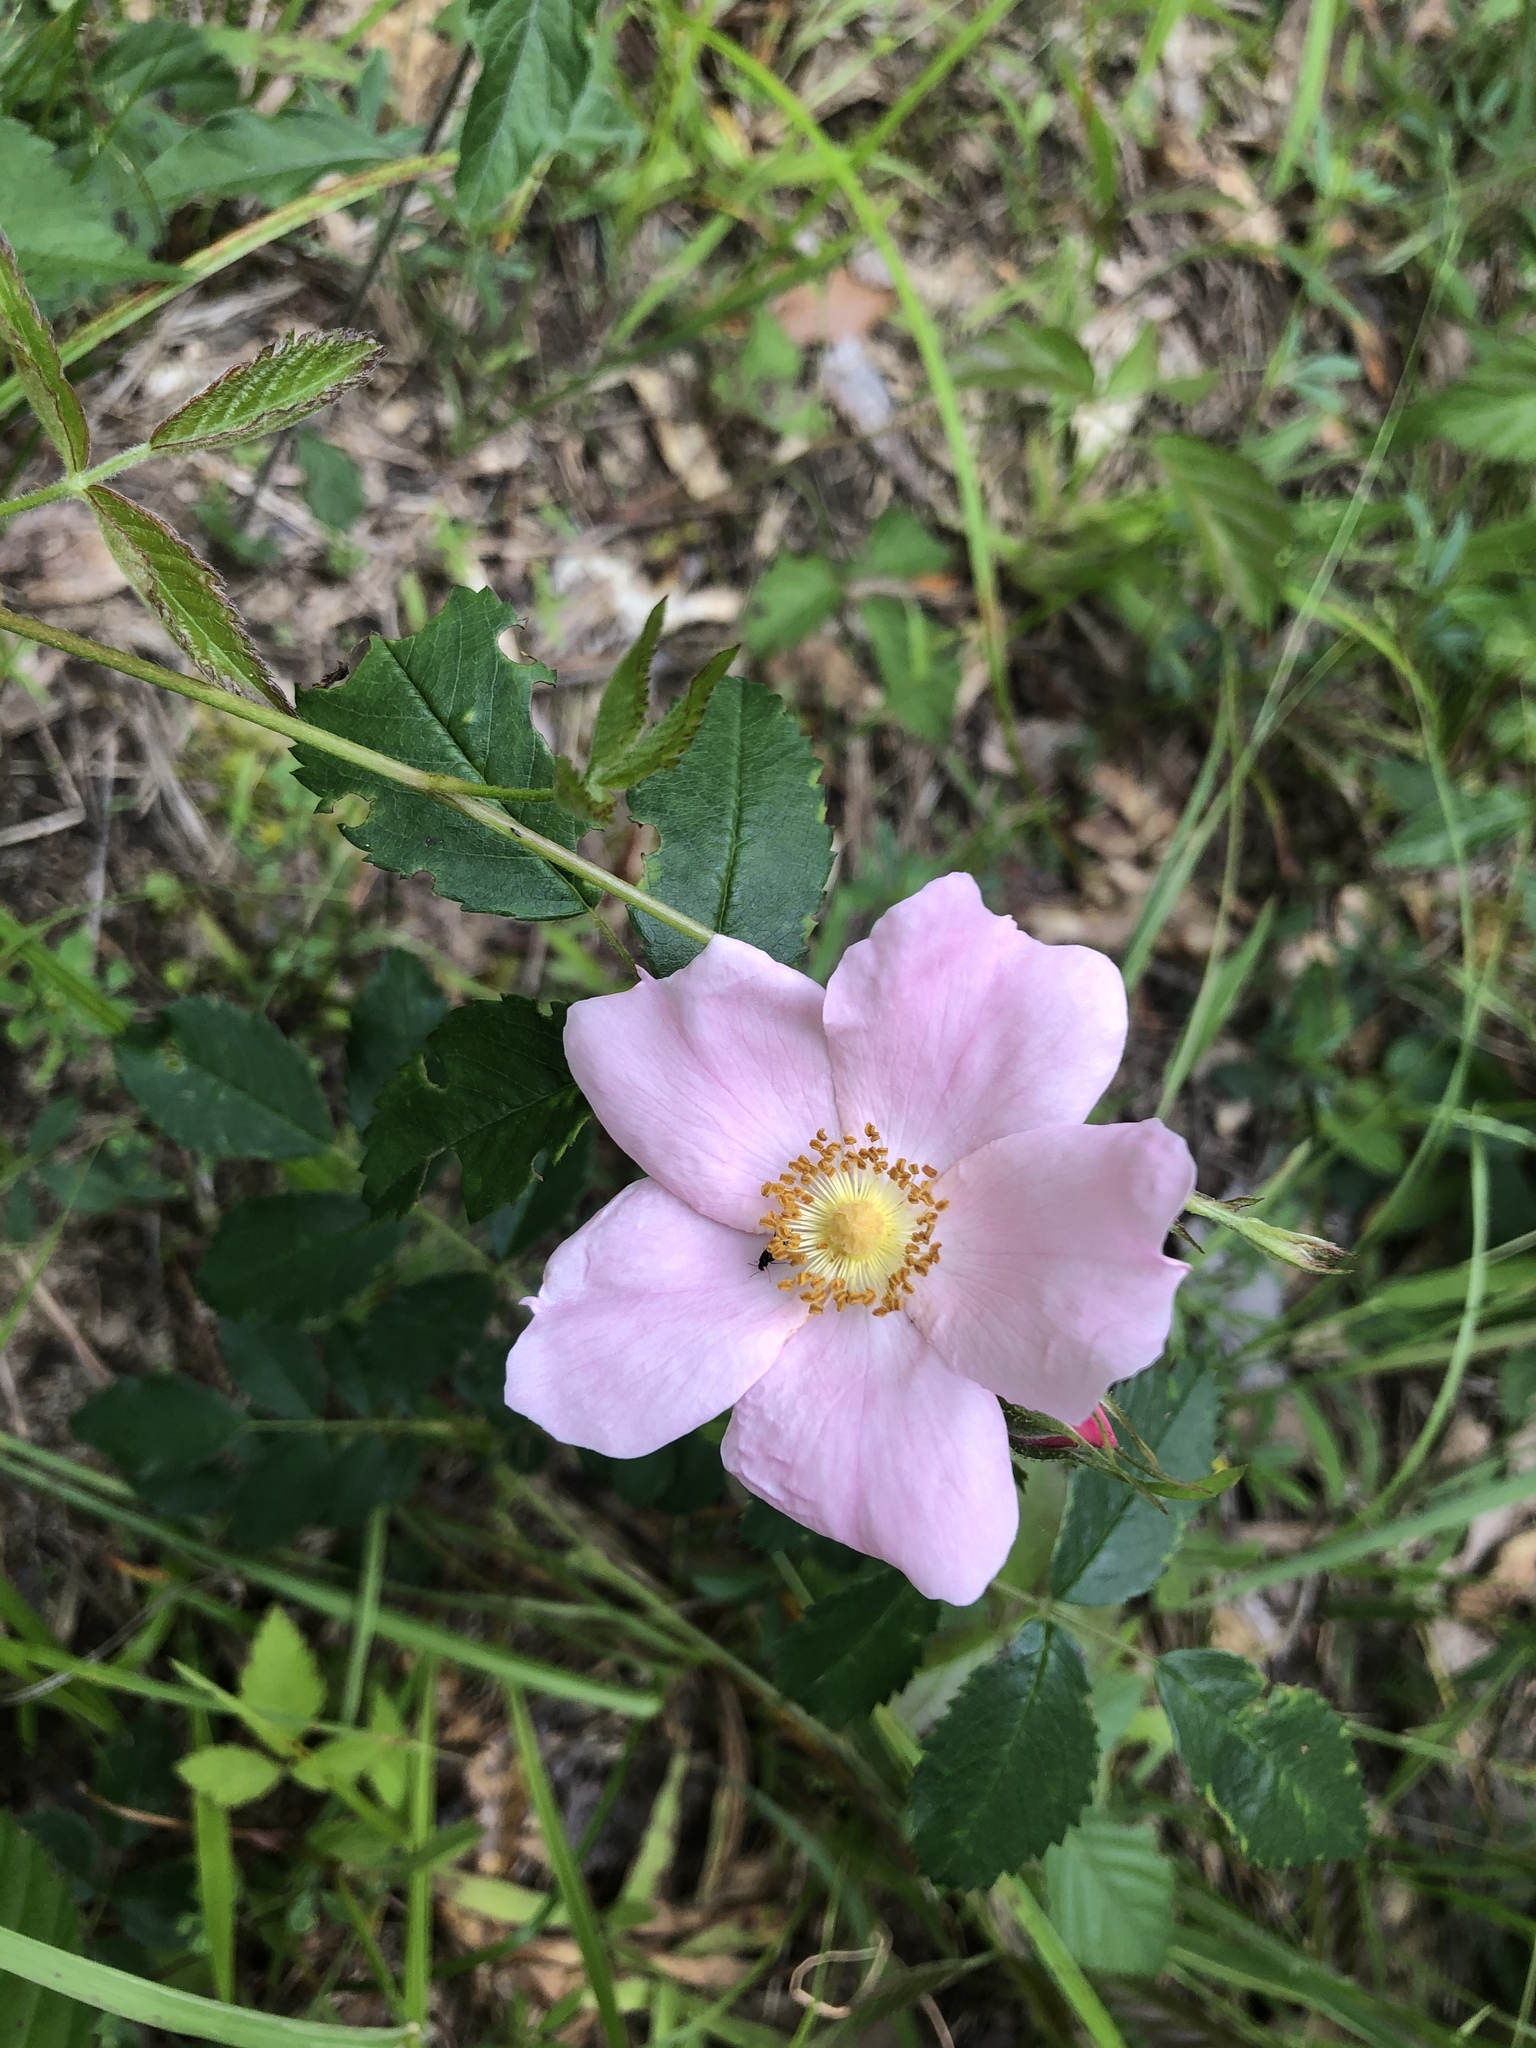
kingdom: Plantae
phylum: Tracheophyta
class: Magnoliopsida
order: Rosales
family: Rosaceae
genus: Rosa
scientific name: Rosa carolina
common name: Pasture rose
